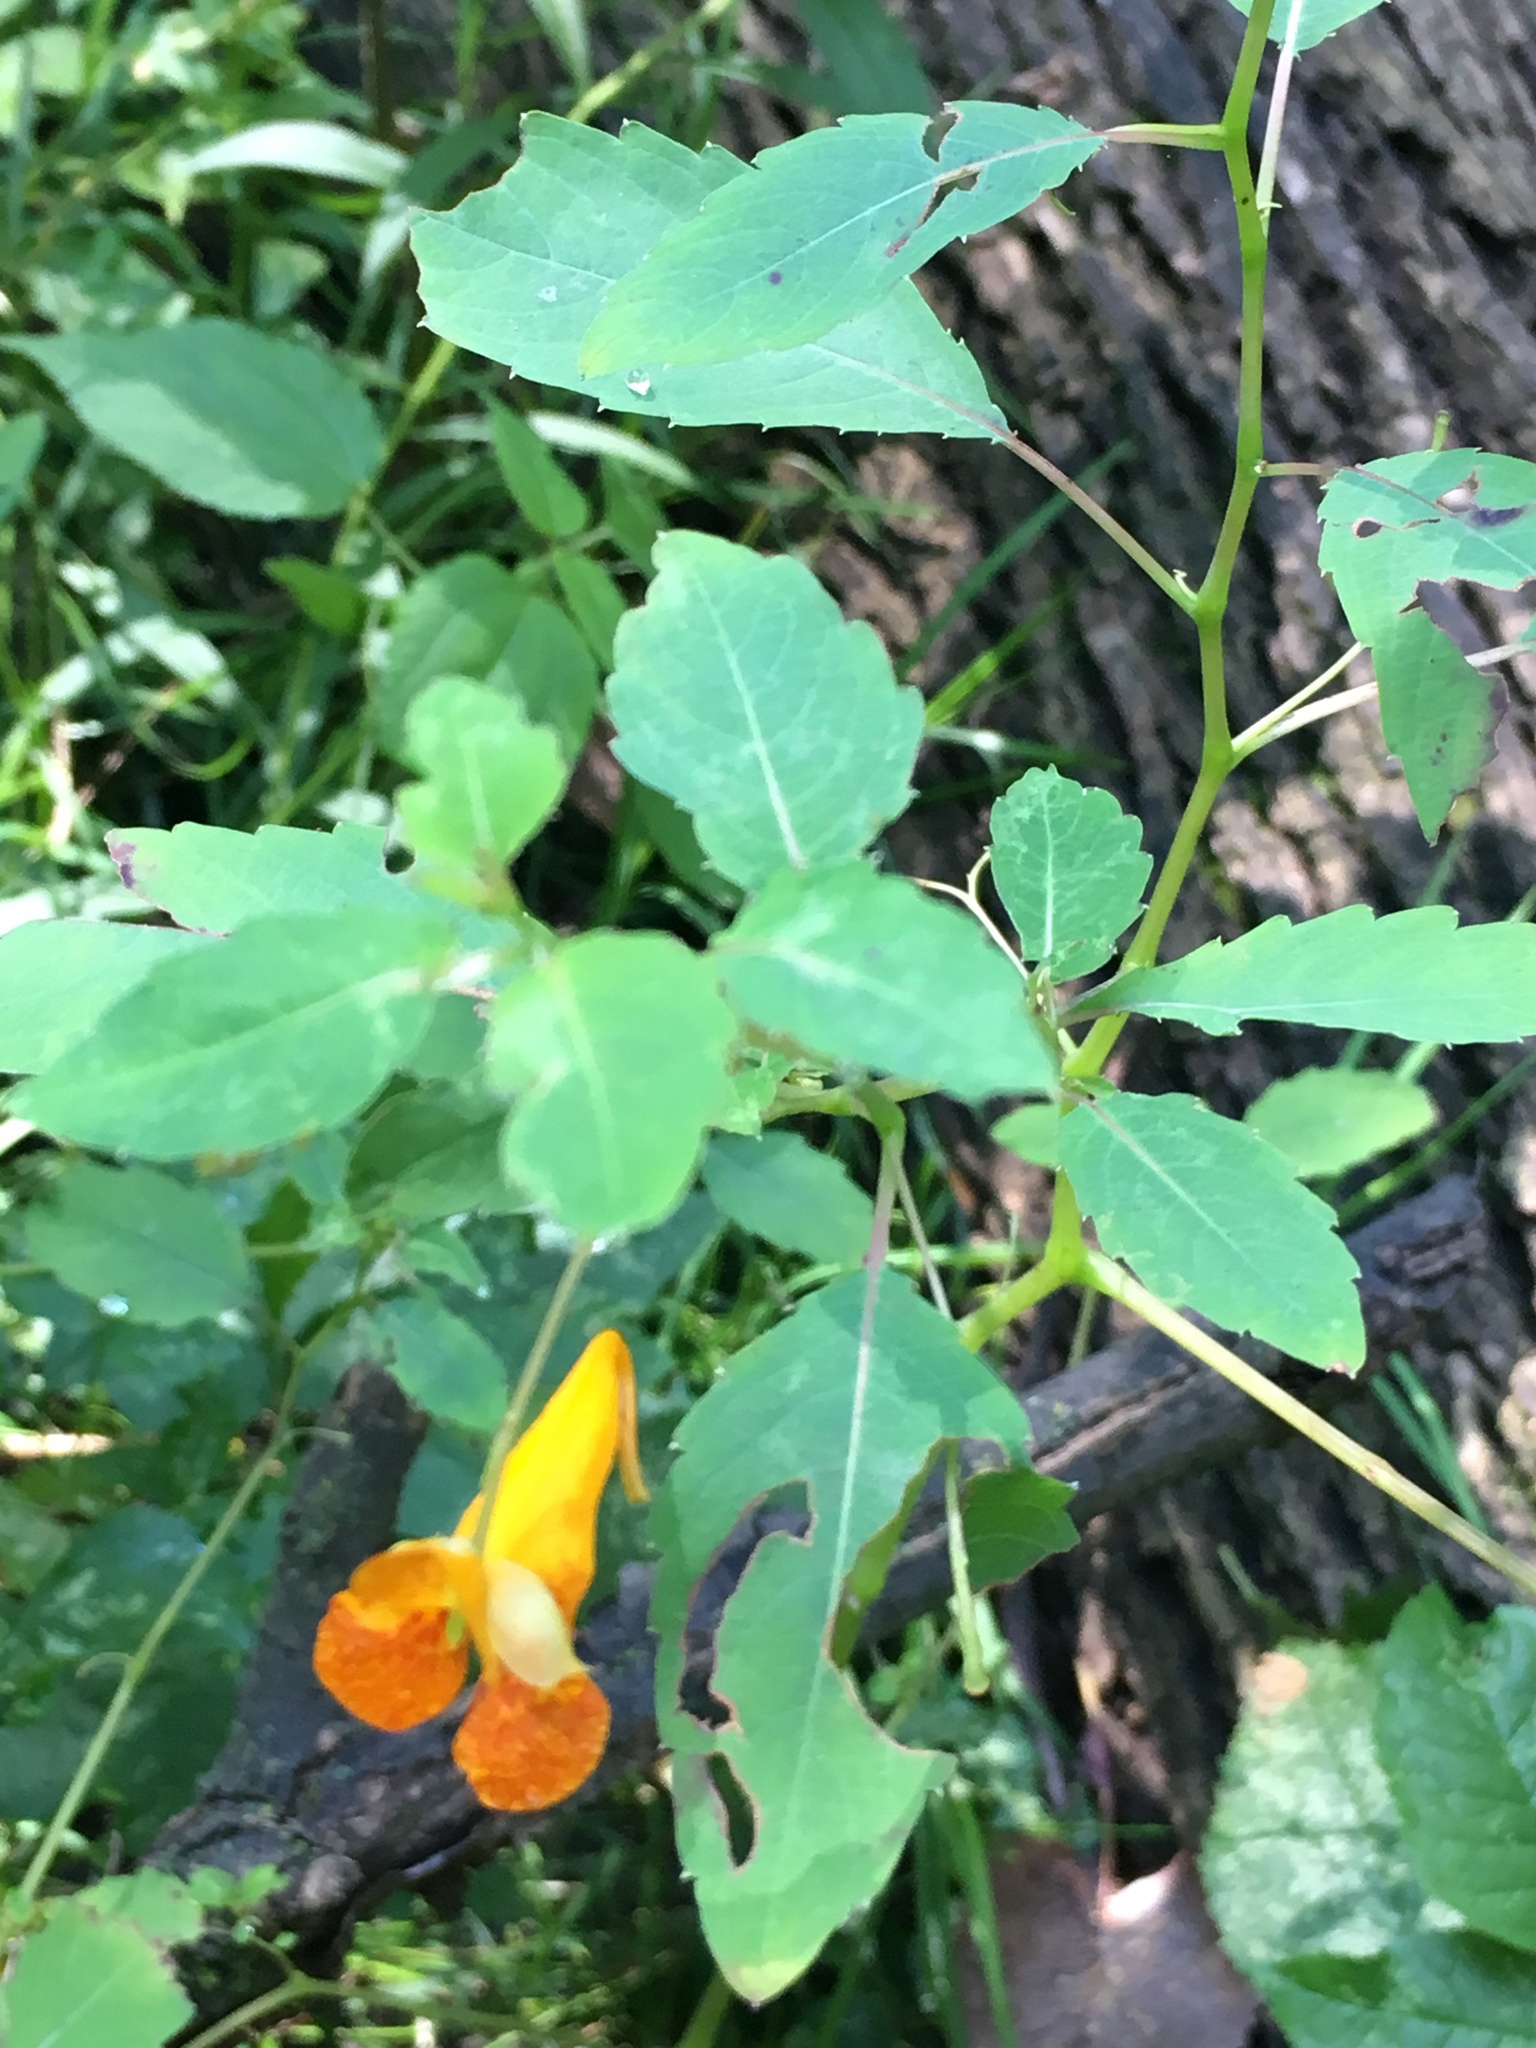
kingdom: Plantae
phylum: Tracheophyta
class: Magnoliopsida
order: Ericales
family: Balsaminaceae
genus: Impatiens
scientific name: Impatiens capensis
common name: Orange balsam
